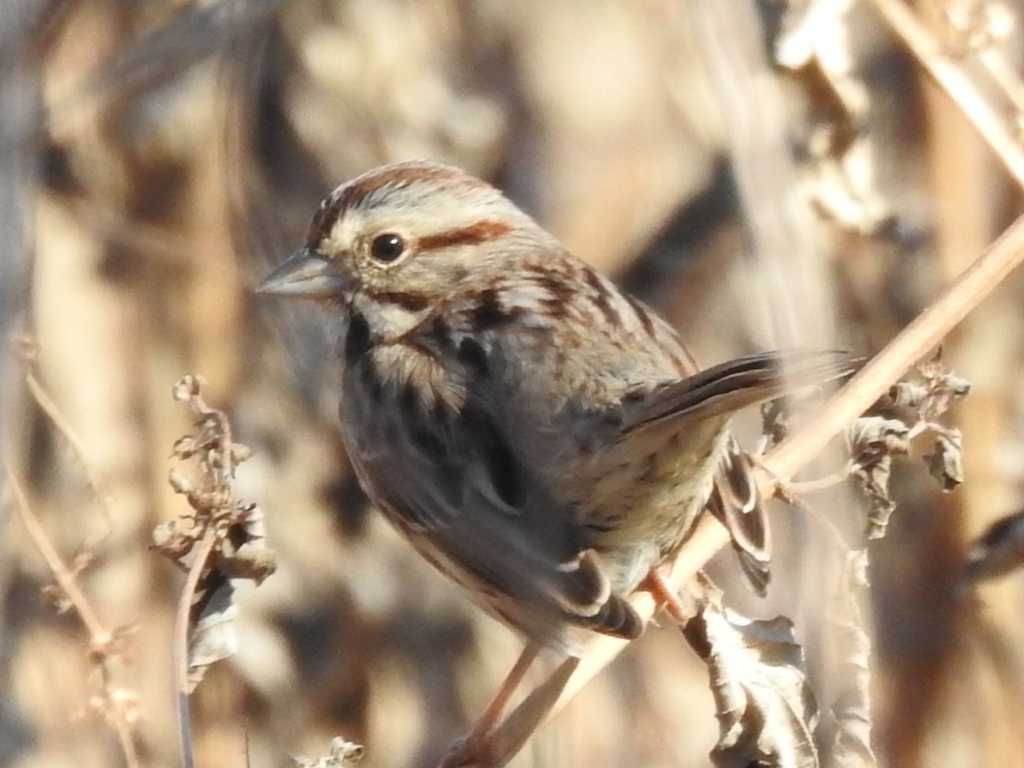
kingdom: Animalia
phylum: Chordata
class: Aves
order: Passeriformes
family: Passerellidae
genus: Melospiza
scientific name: Melospiza melodia
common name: Song sparrow
